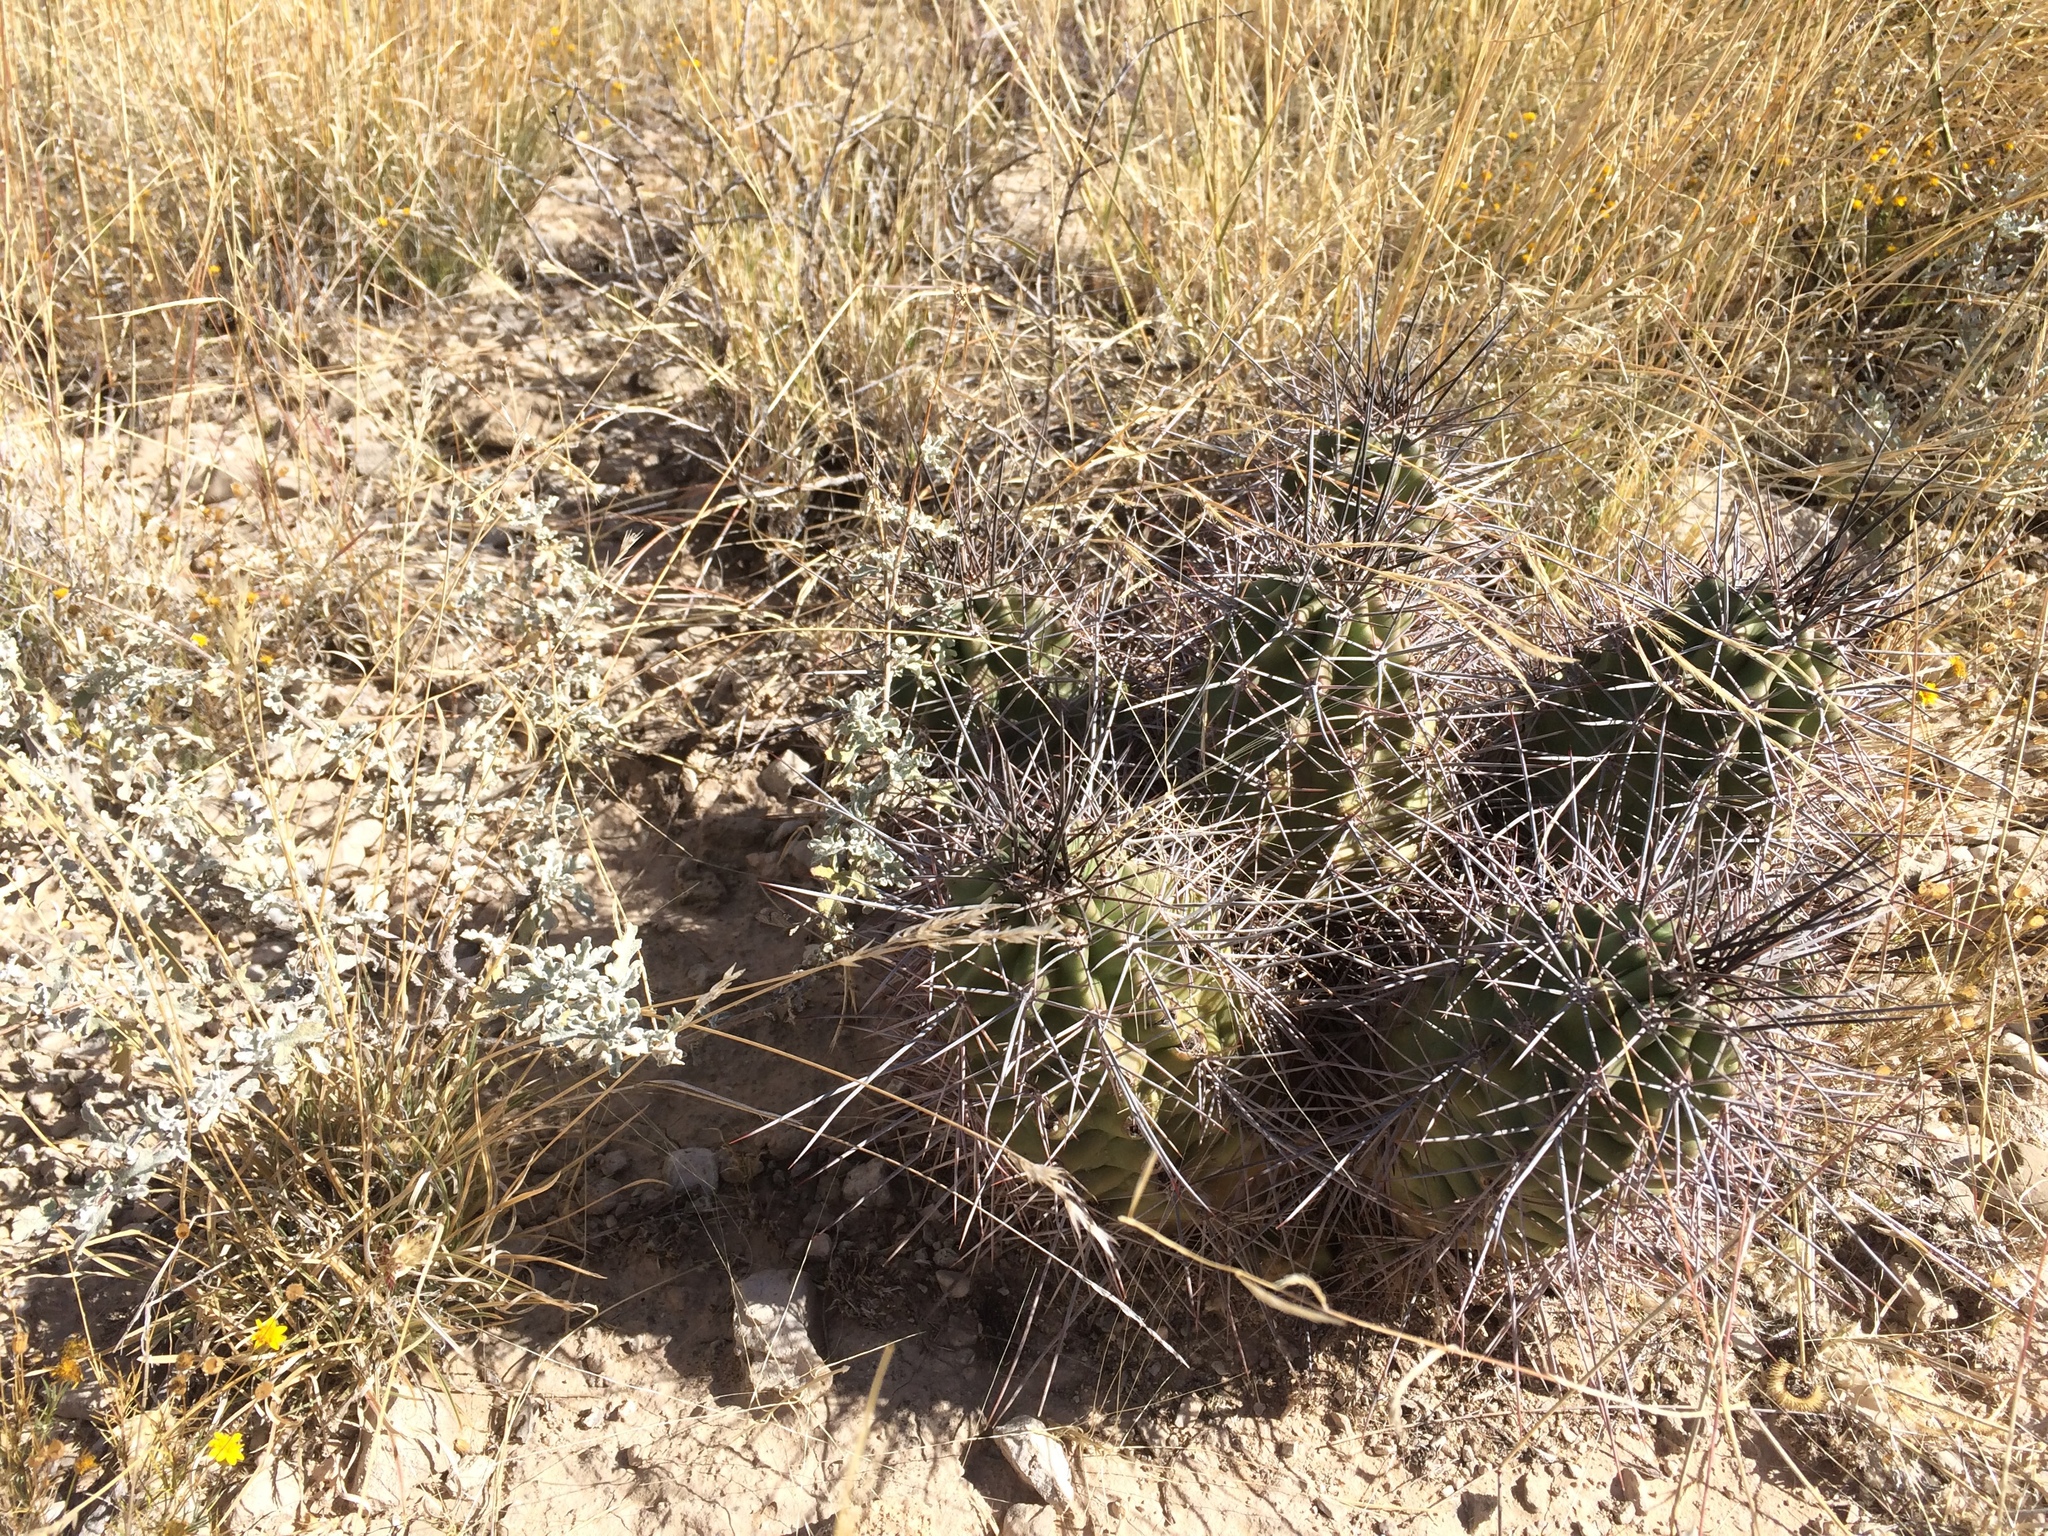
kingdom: Plantae
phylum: Tracheophyta
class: Magnoliopsida
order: Caryophyllales
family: Cactaceae
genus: Echinocereus
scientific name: Echinocereus coccineus
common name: Scarlet hedgehog cactus
